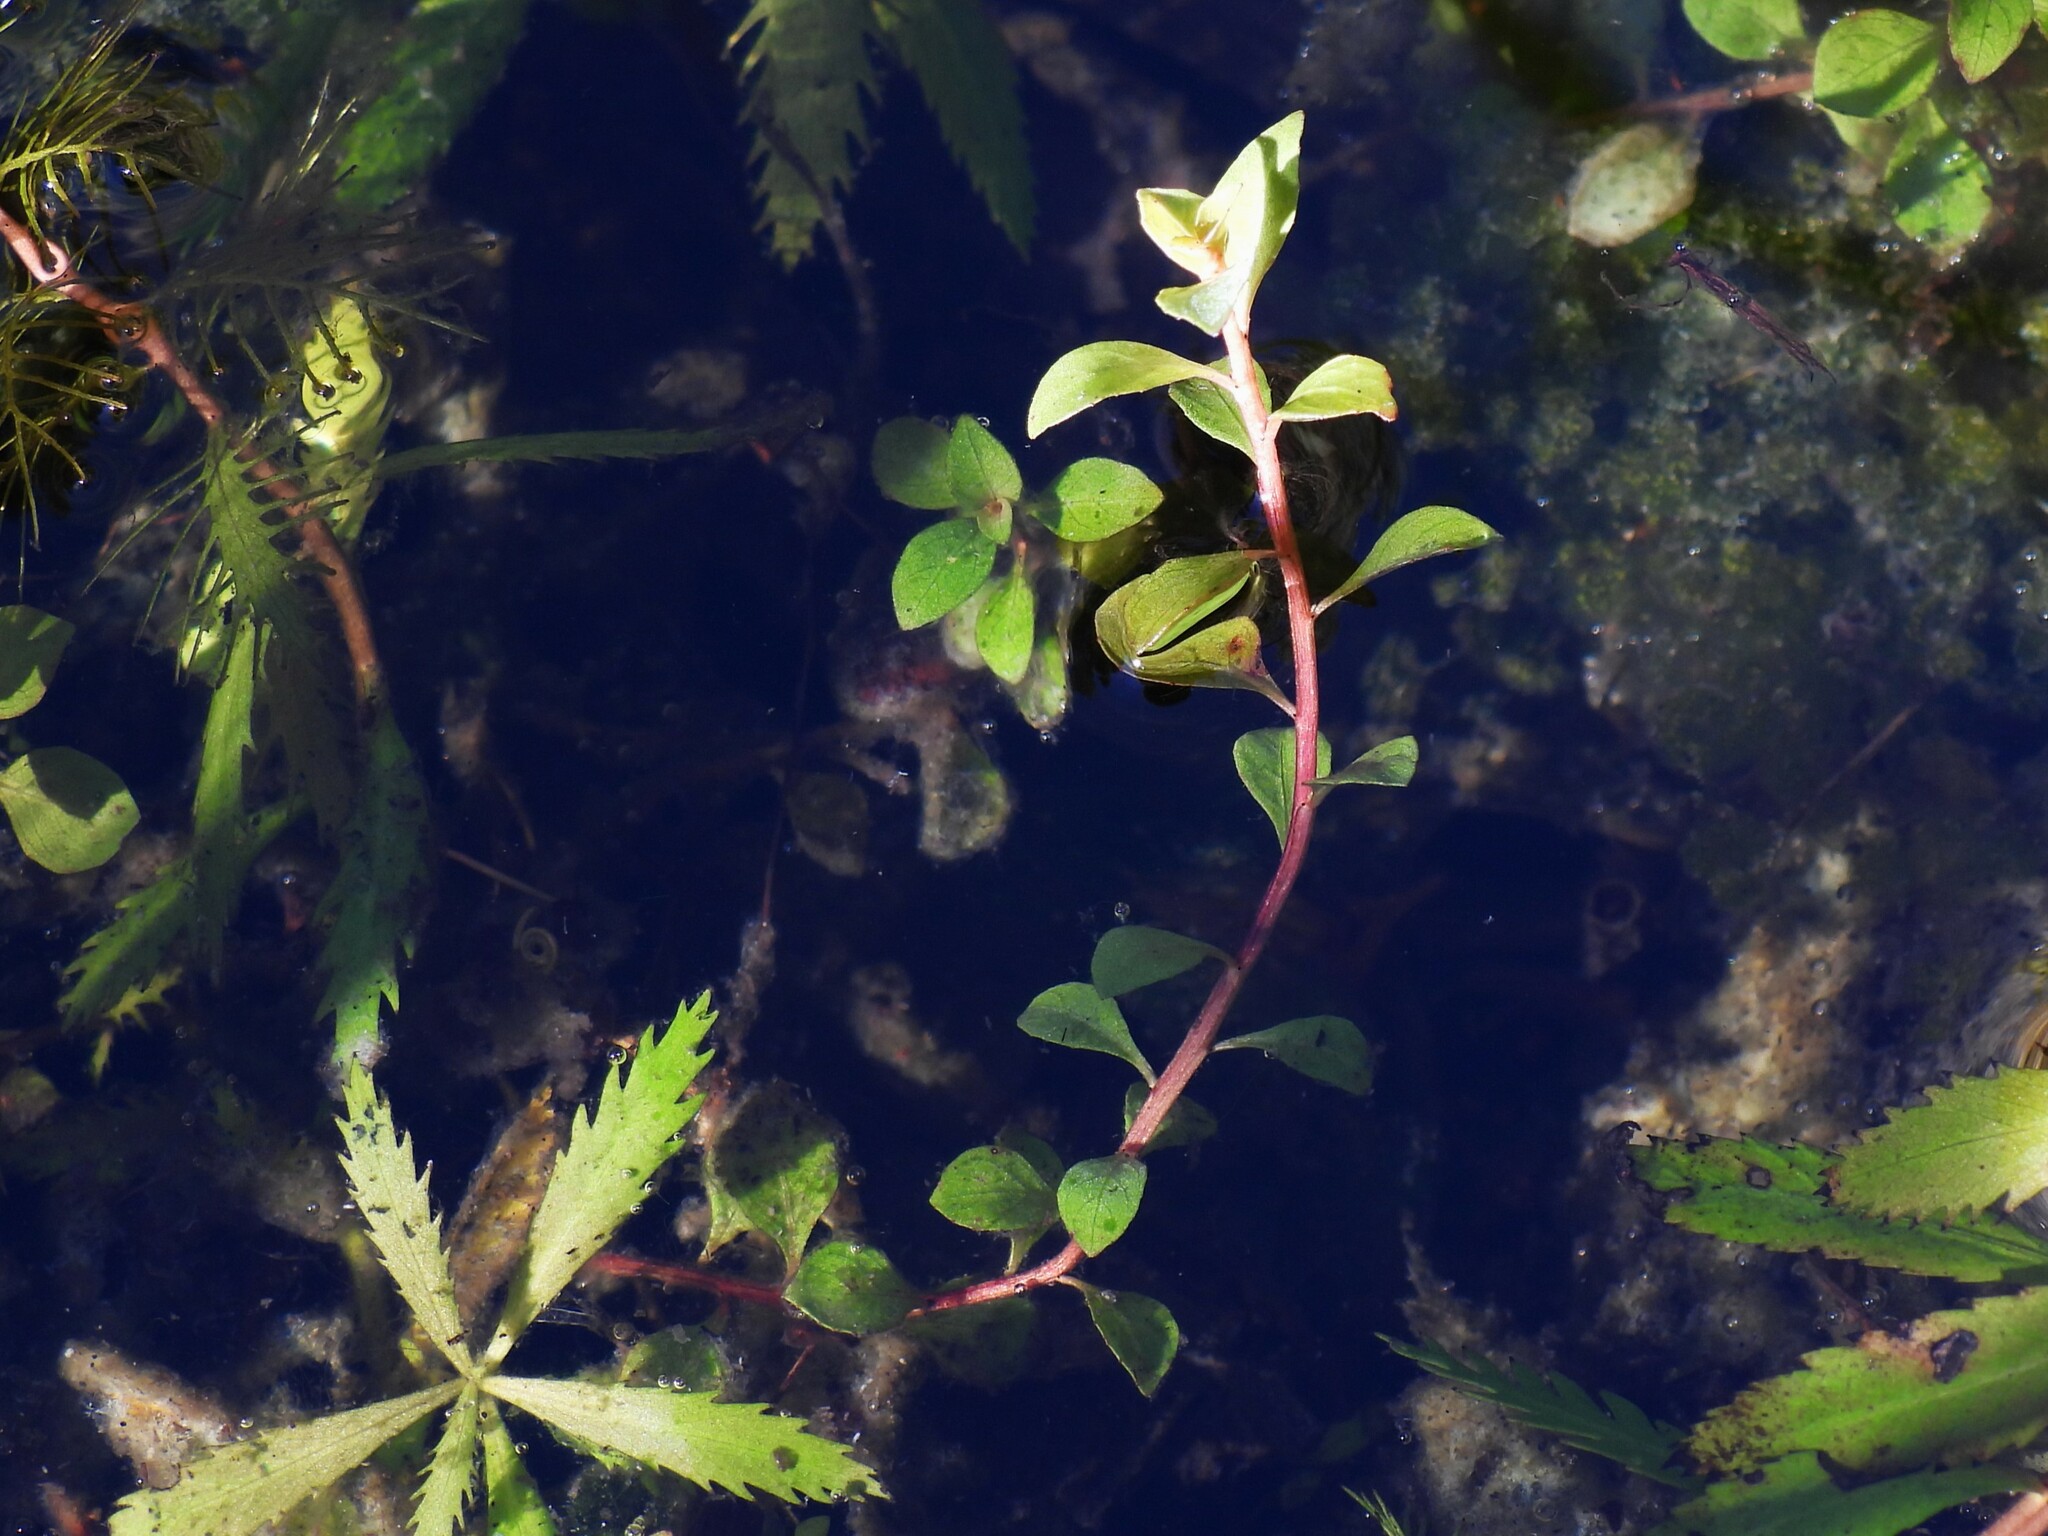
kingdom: Plantae
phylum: Tracheophyta
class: Magnoliopsida
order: Myrtales
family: Onagraceae
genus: Ludwigia
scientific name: Ludwigia microcarpa
